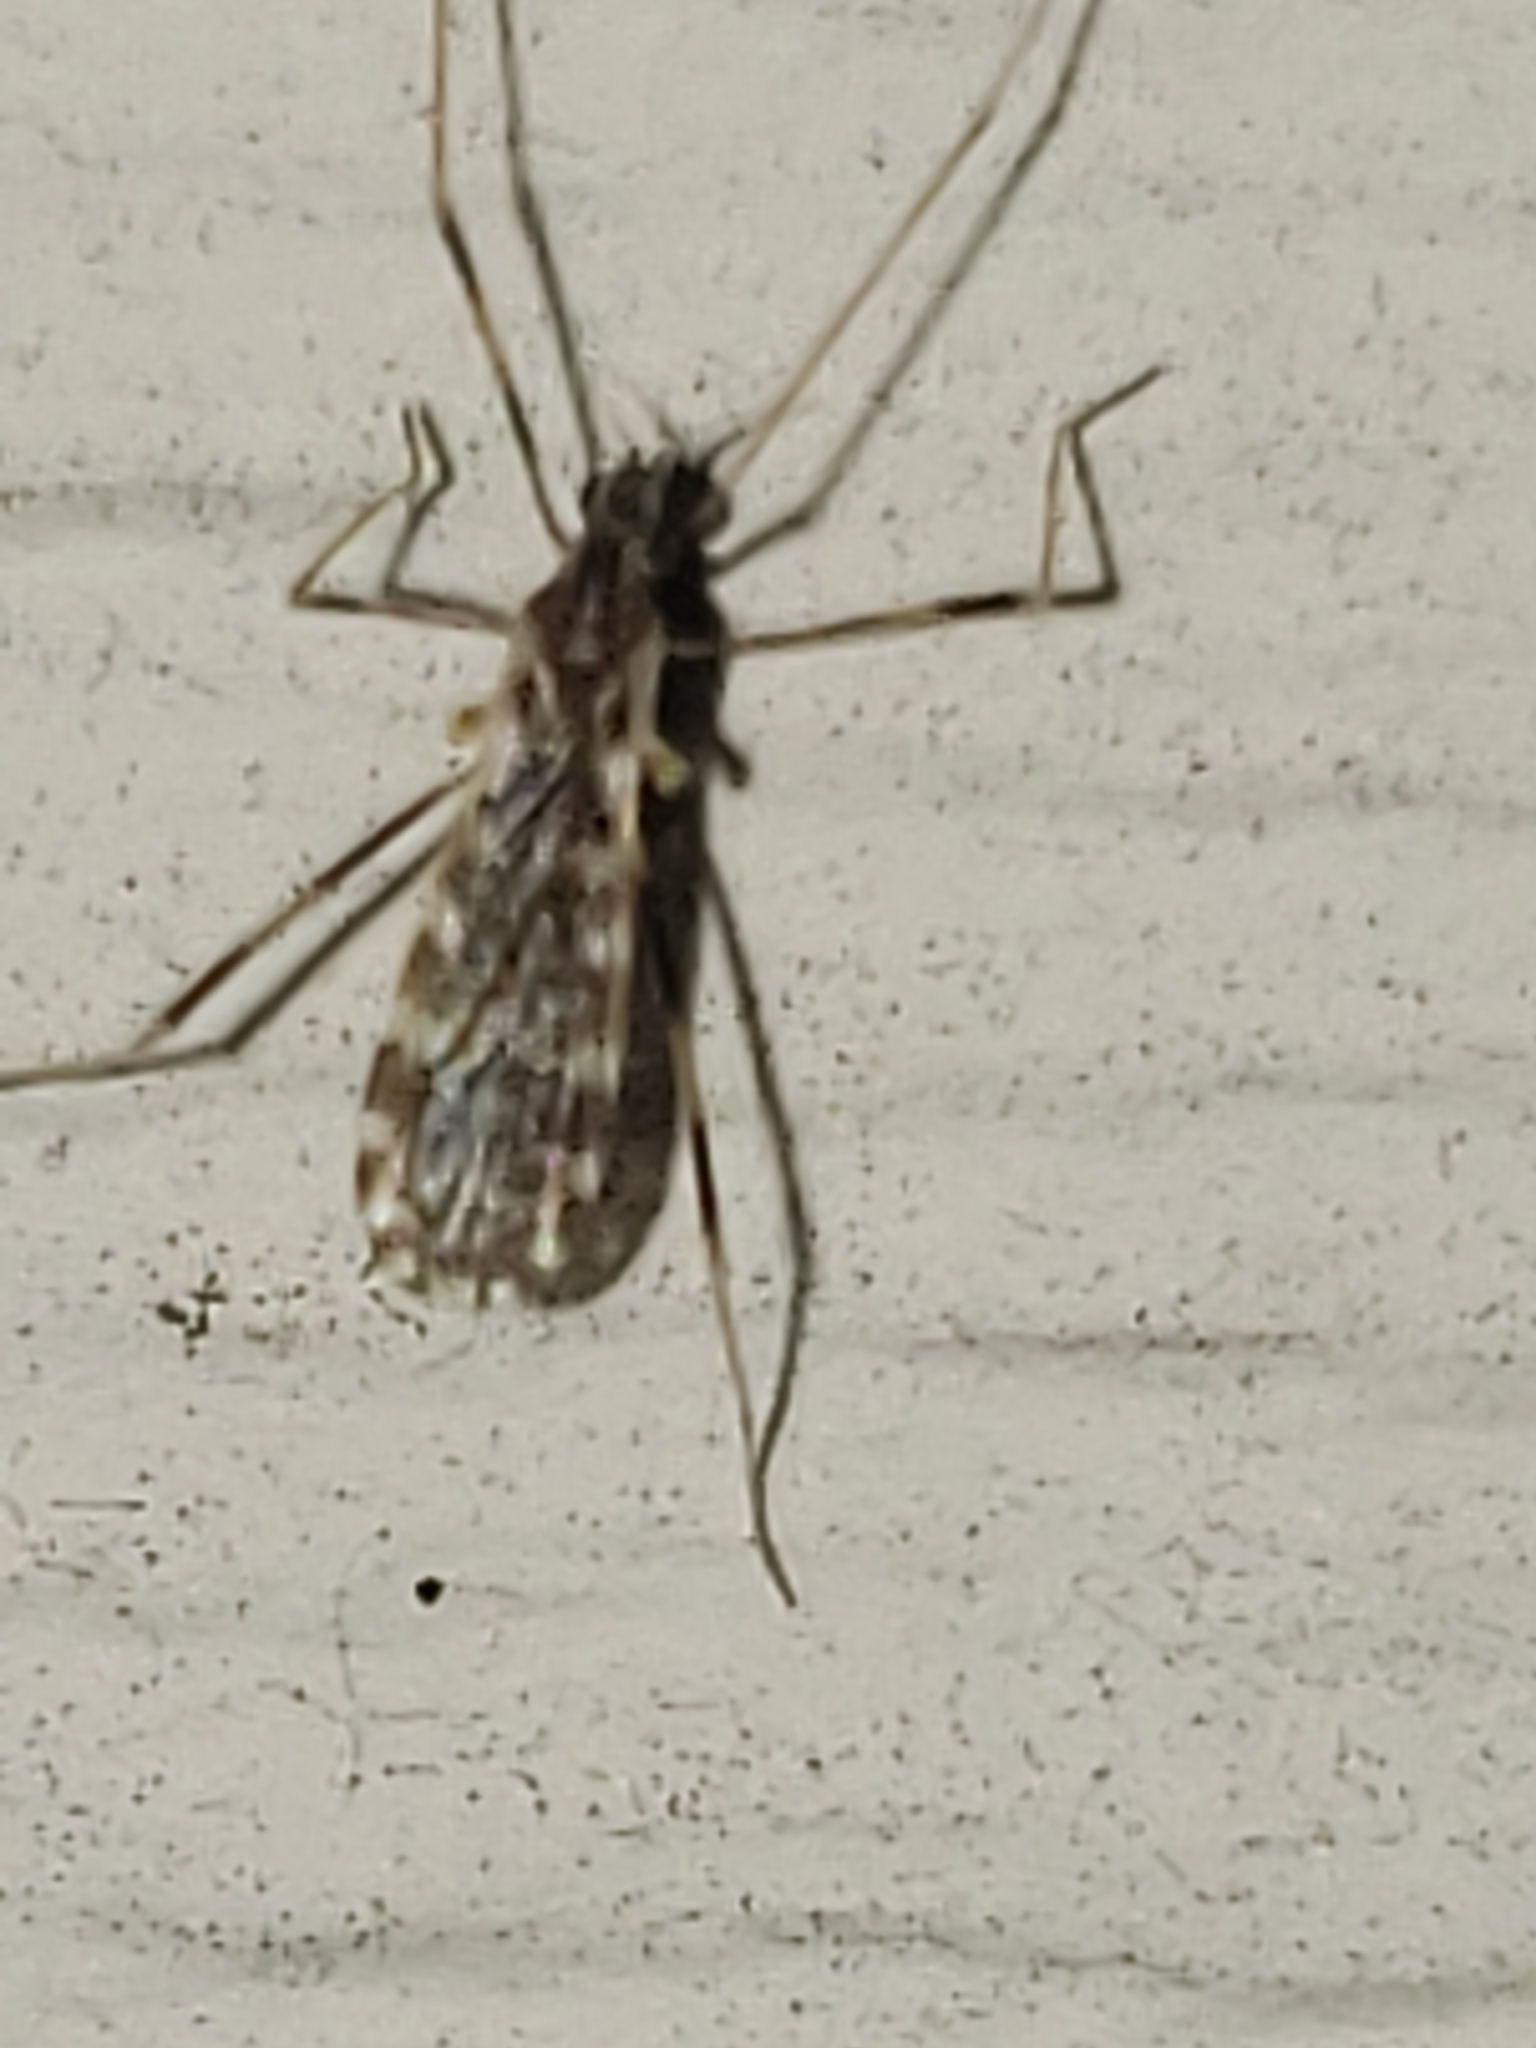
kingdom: Animalia
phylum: Arthropoda
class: Insecta
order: Diptera
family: Limoniidae
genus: Erioptera
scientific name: Erioptera caliptera
